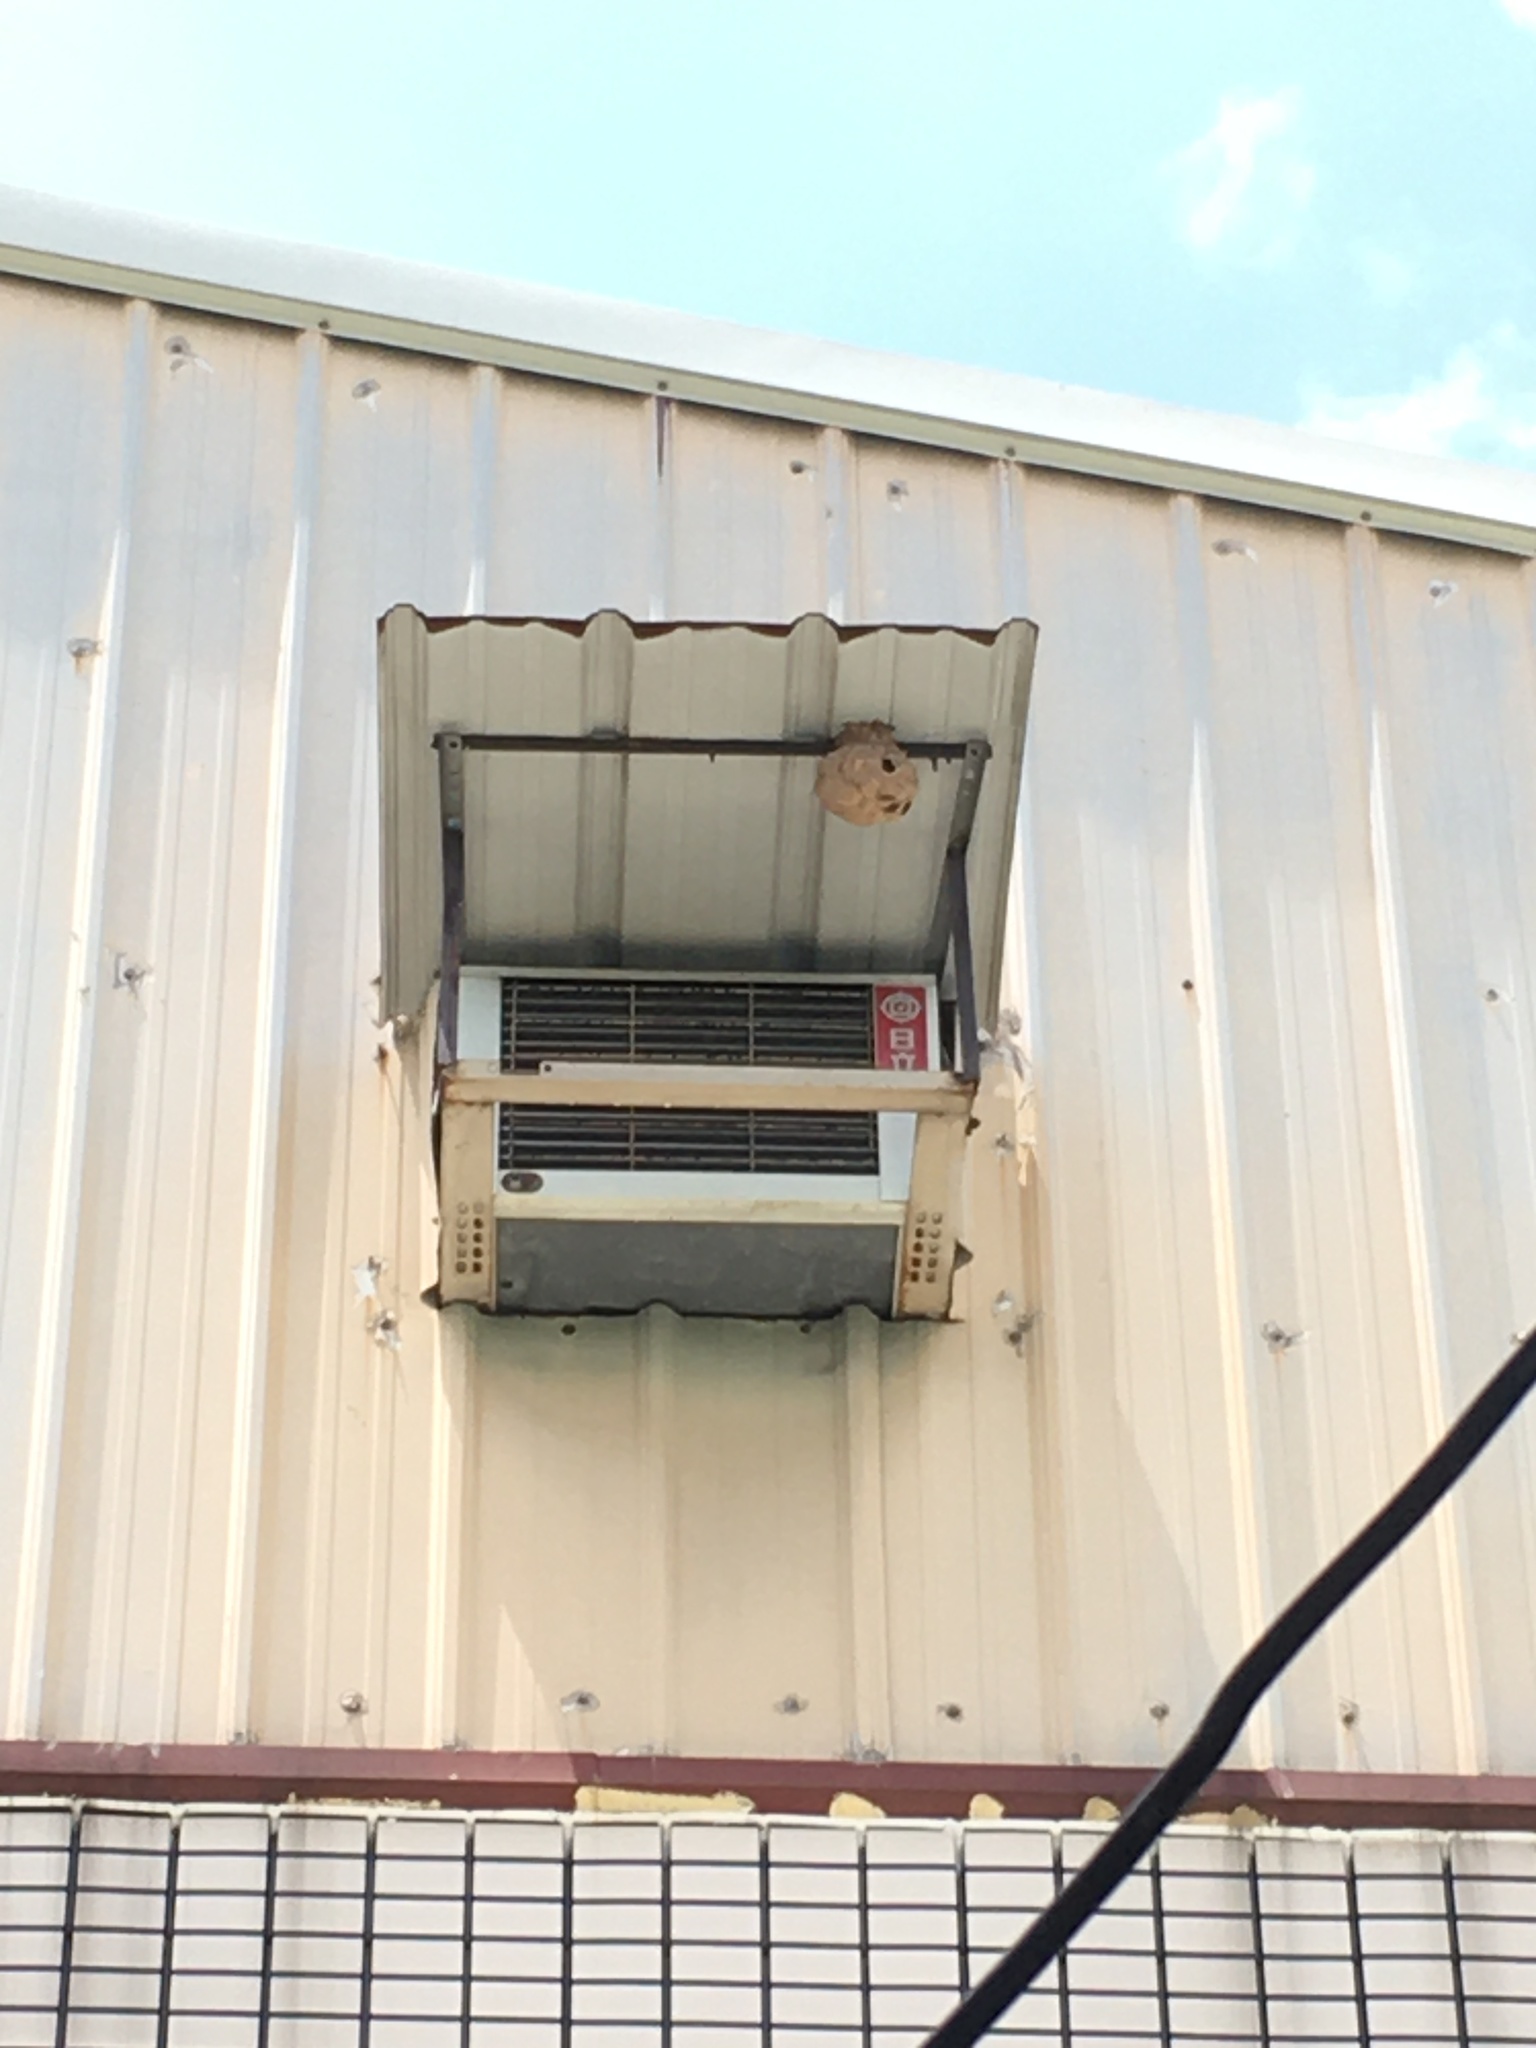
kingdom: Animalia
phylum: Arthropoda
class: Insecta
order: Hymenoptera
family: Vespidae
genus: Vespa
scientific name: Vespa affinis
